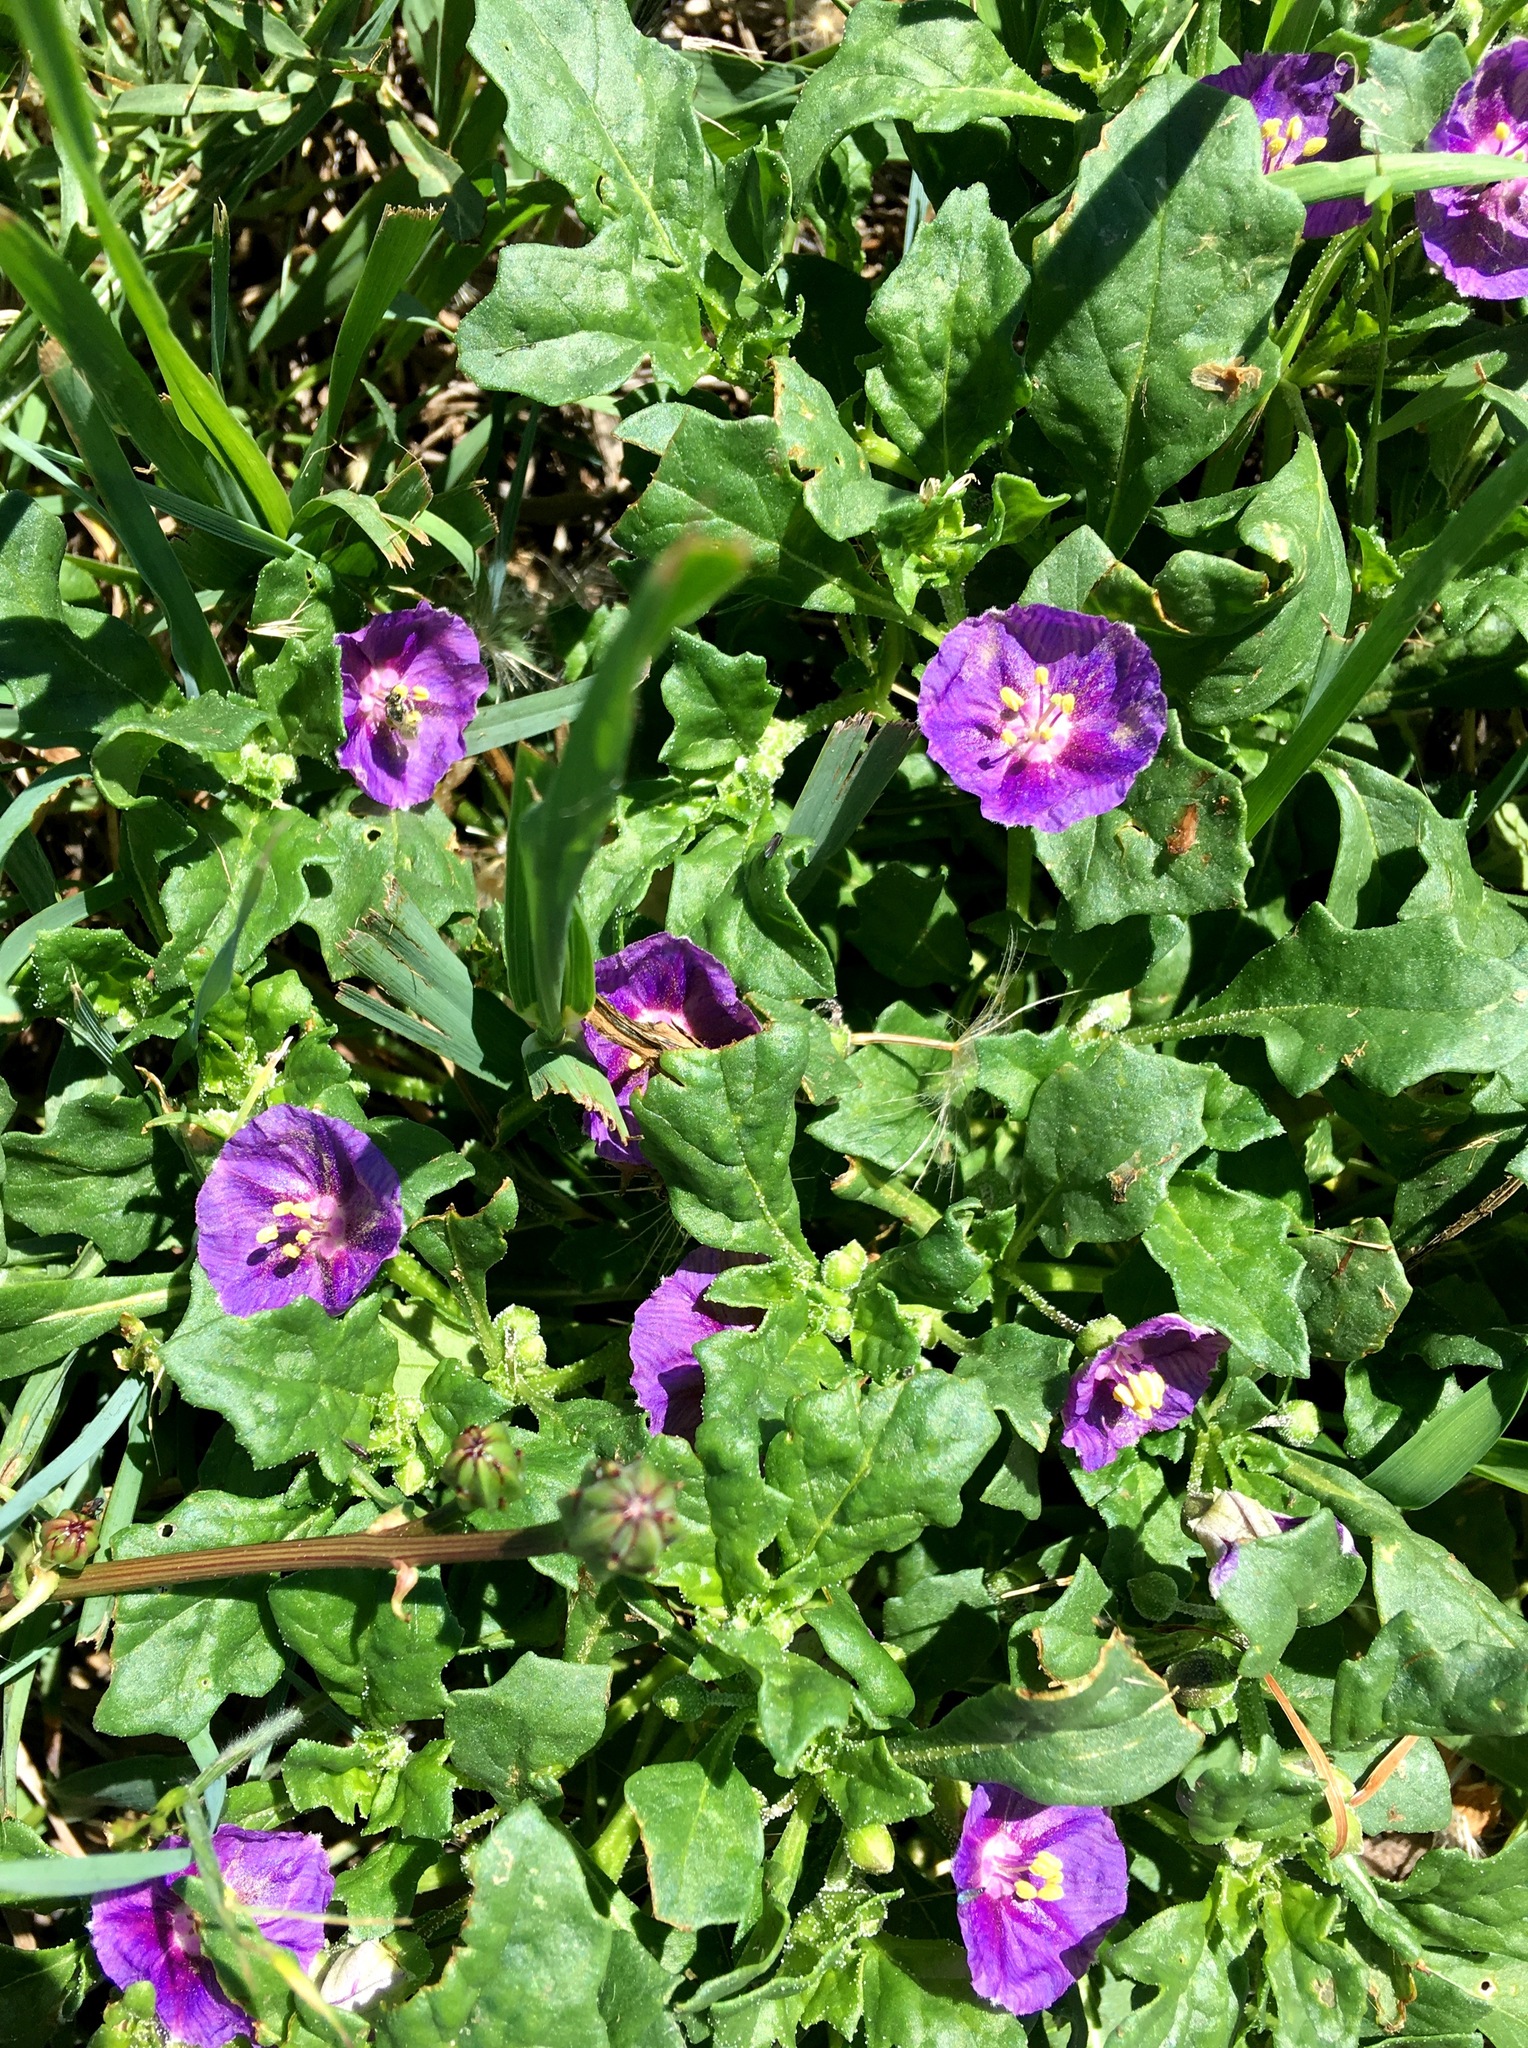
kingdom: Plantae
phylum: Tracheophyta
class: Magnoliopsida
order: Solanales
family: Solanaceae
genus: Quincula
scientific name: Quincula lobata
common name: Purple-ground-cherry
